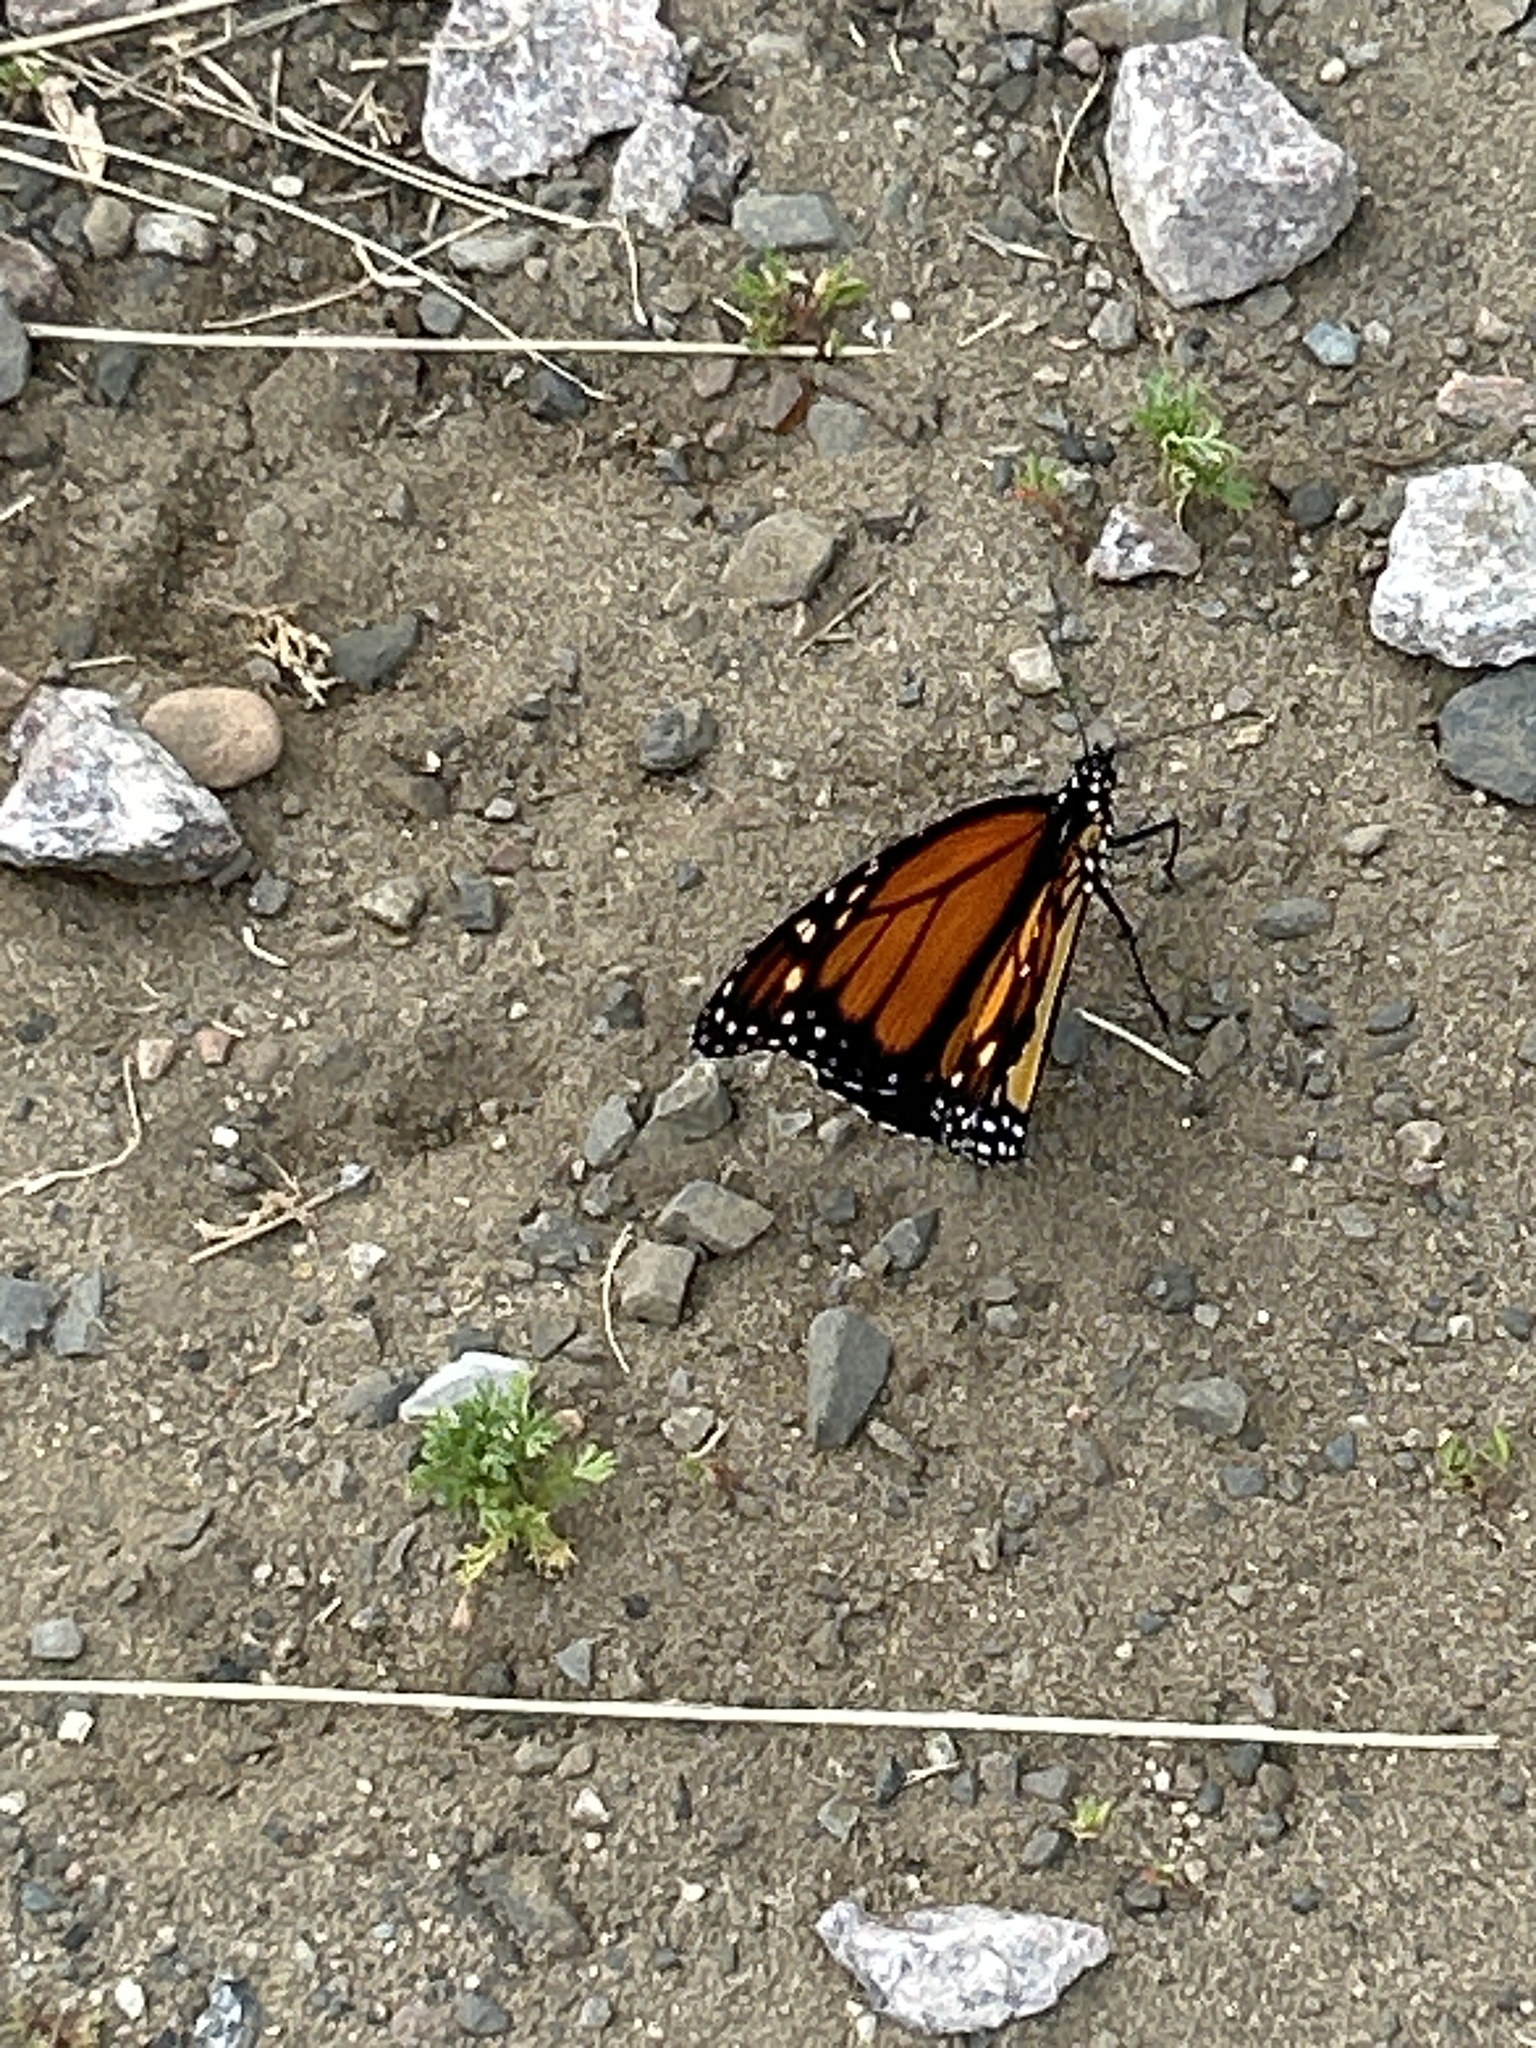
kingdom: Animalia
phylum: Arthropoda
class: Insecta
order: Lepidoptera
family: Nymphalidae
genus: Danaus
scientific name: Danaus plexippus
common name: Monarch
